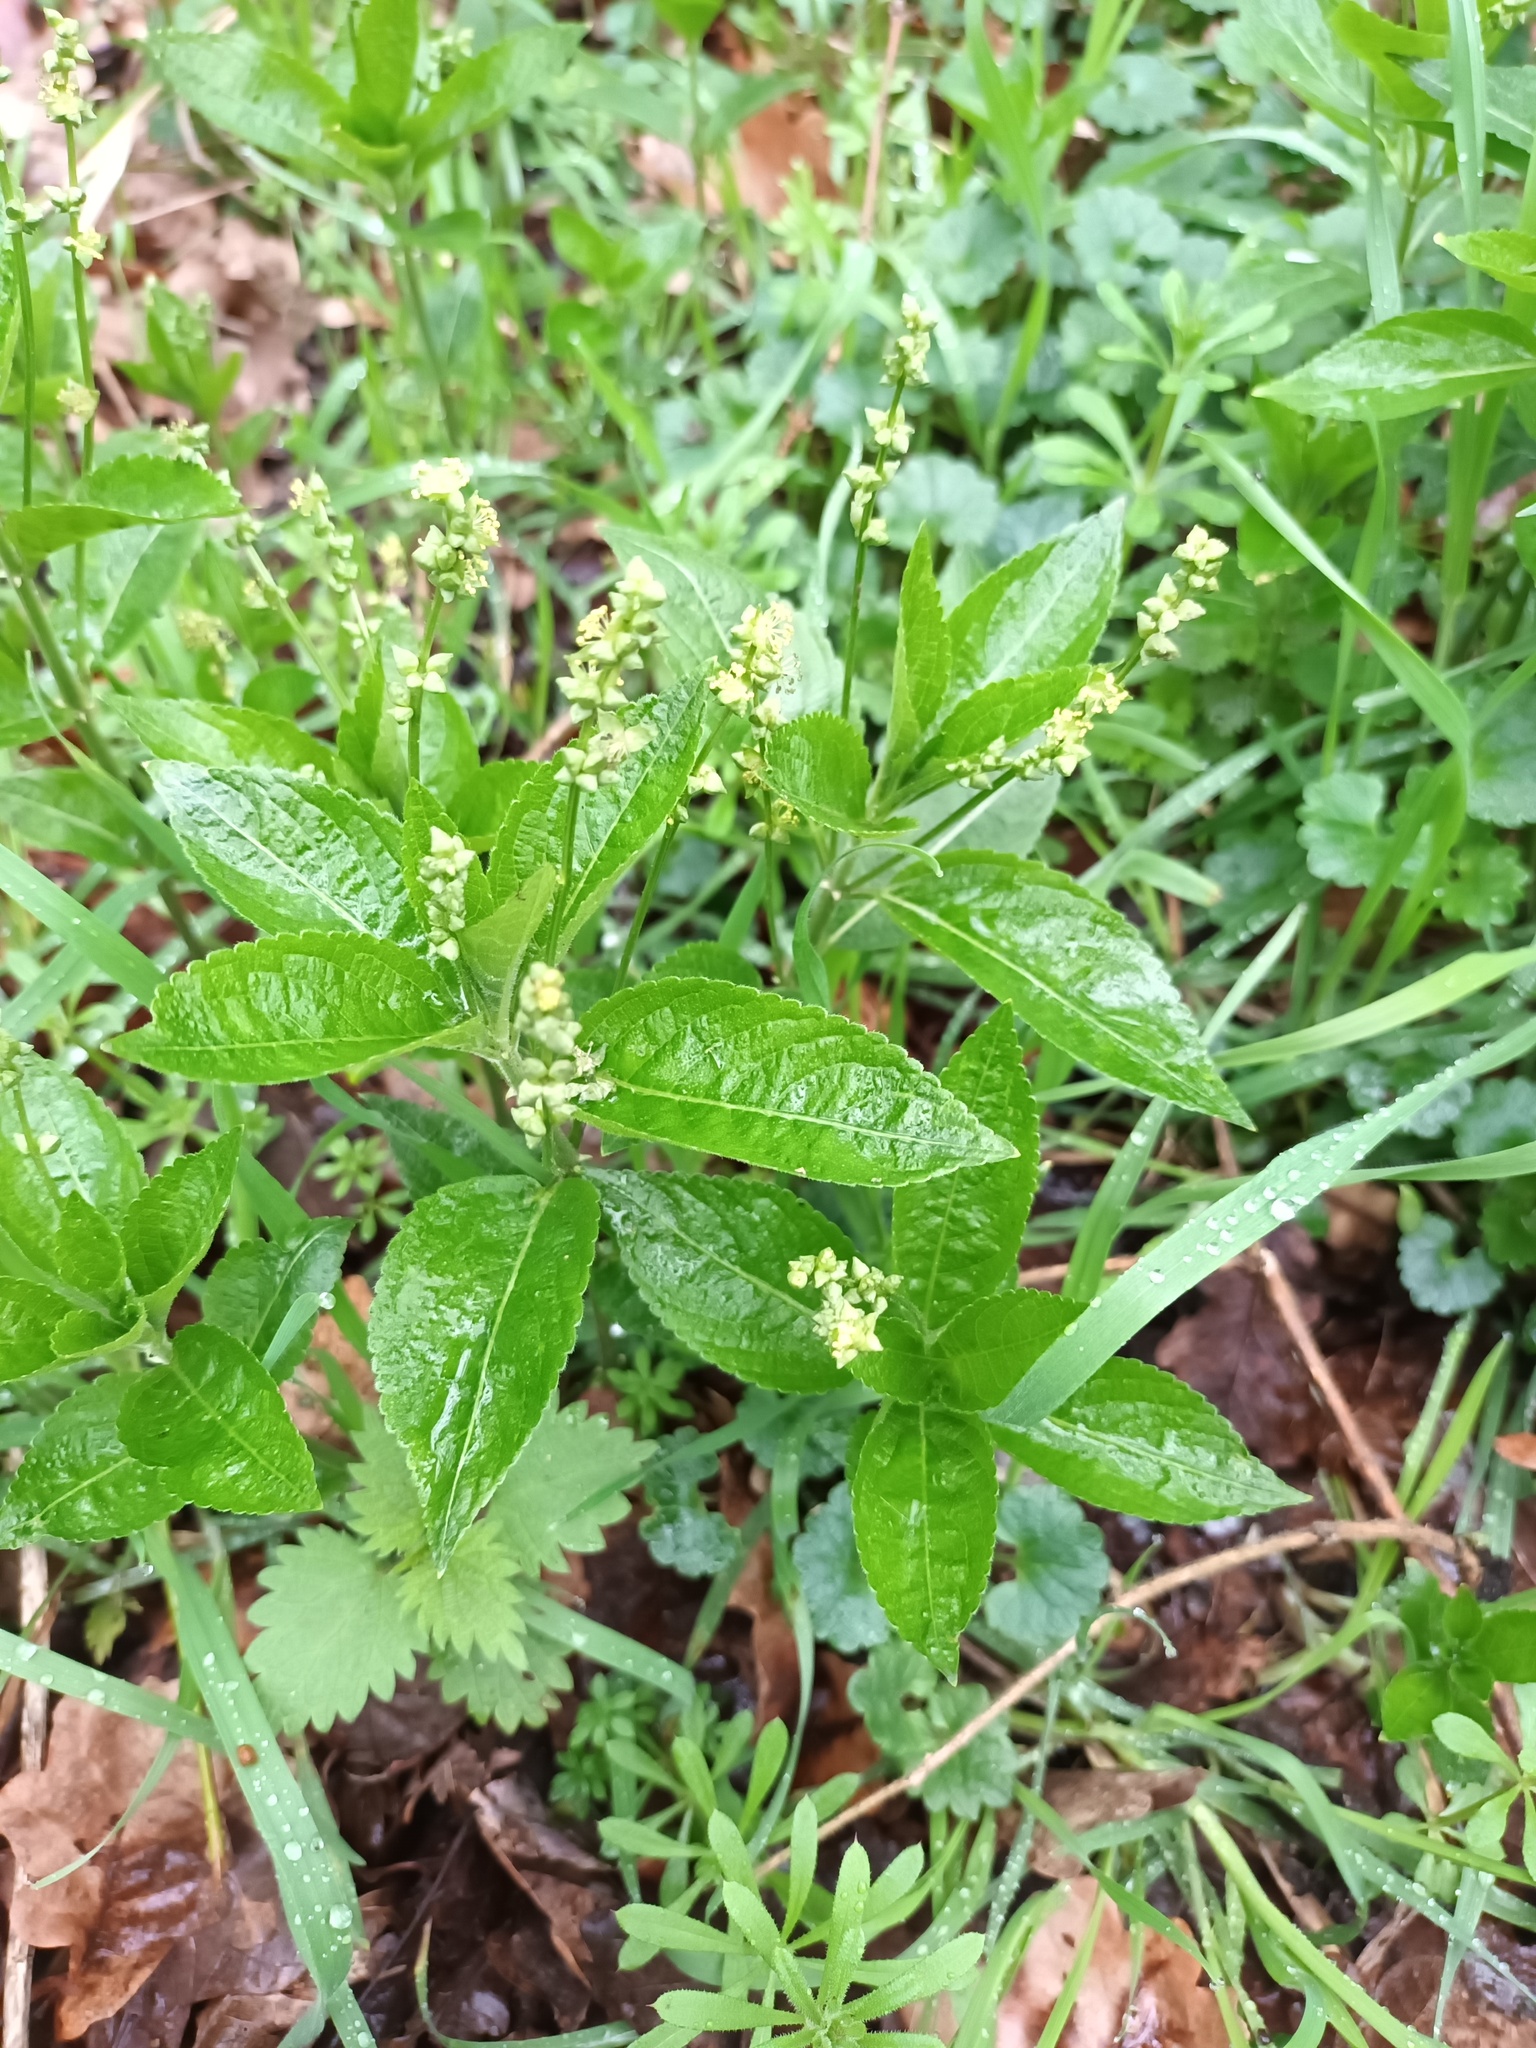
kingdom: Plantae
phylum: Tracheophyta
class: Magnoliopsida
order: Malpighiales
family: Euphorbiaceae
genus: Mercurialis
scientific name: Mercurialis perennis
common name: Dog mercury
